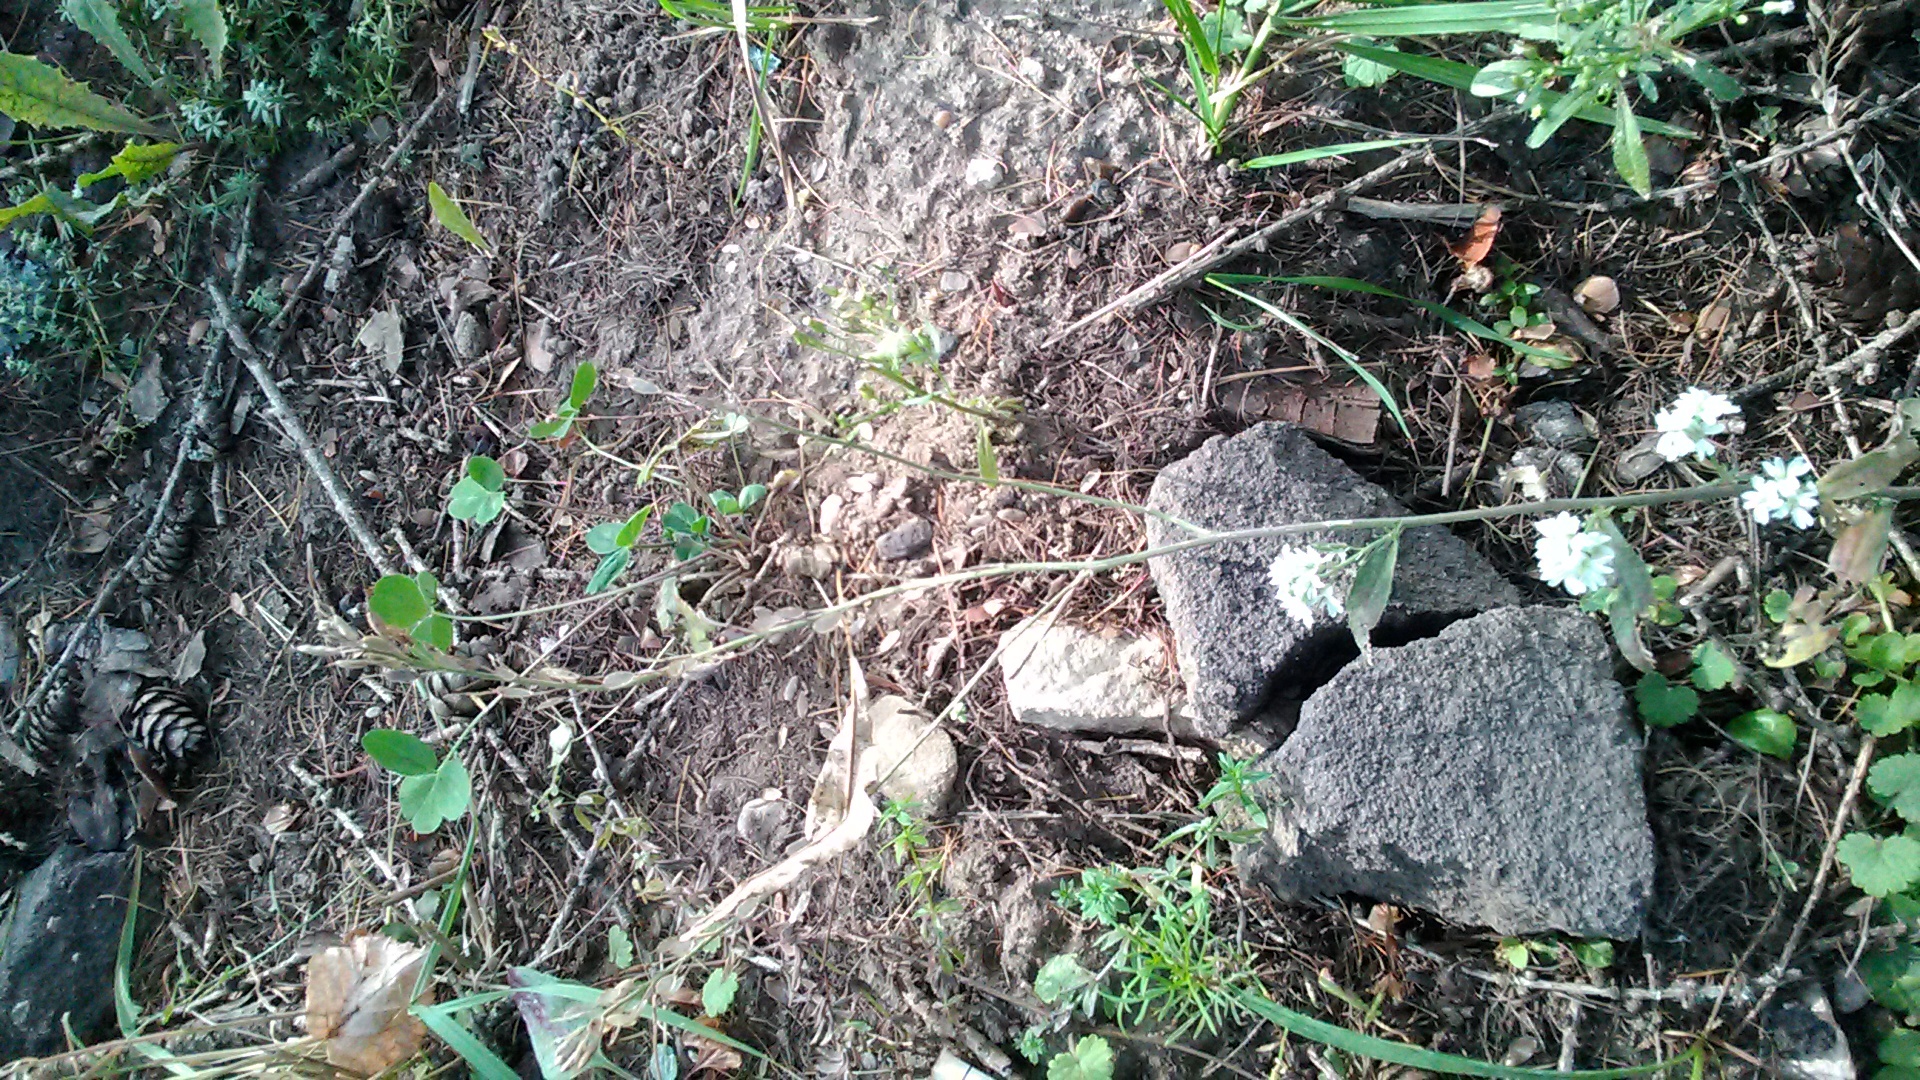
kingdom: Plantae
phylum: Tracheophyta
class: Magnoliopsida
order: Brassicales
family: Brassicaceae
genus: Berteroa
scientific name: Berteroa incana
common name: Hoary alison
